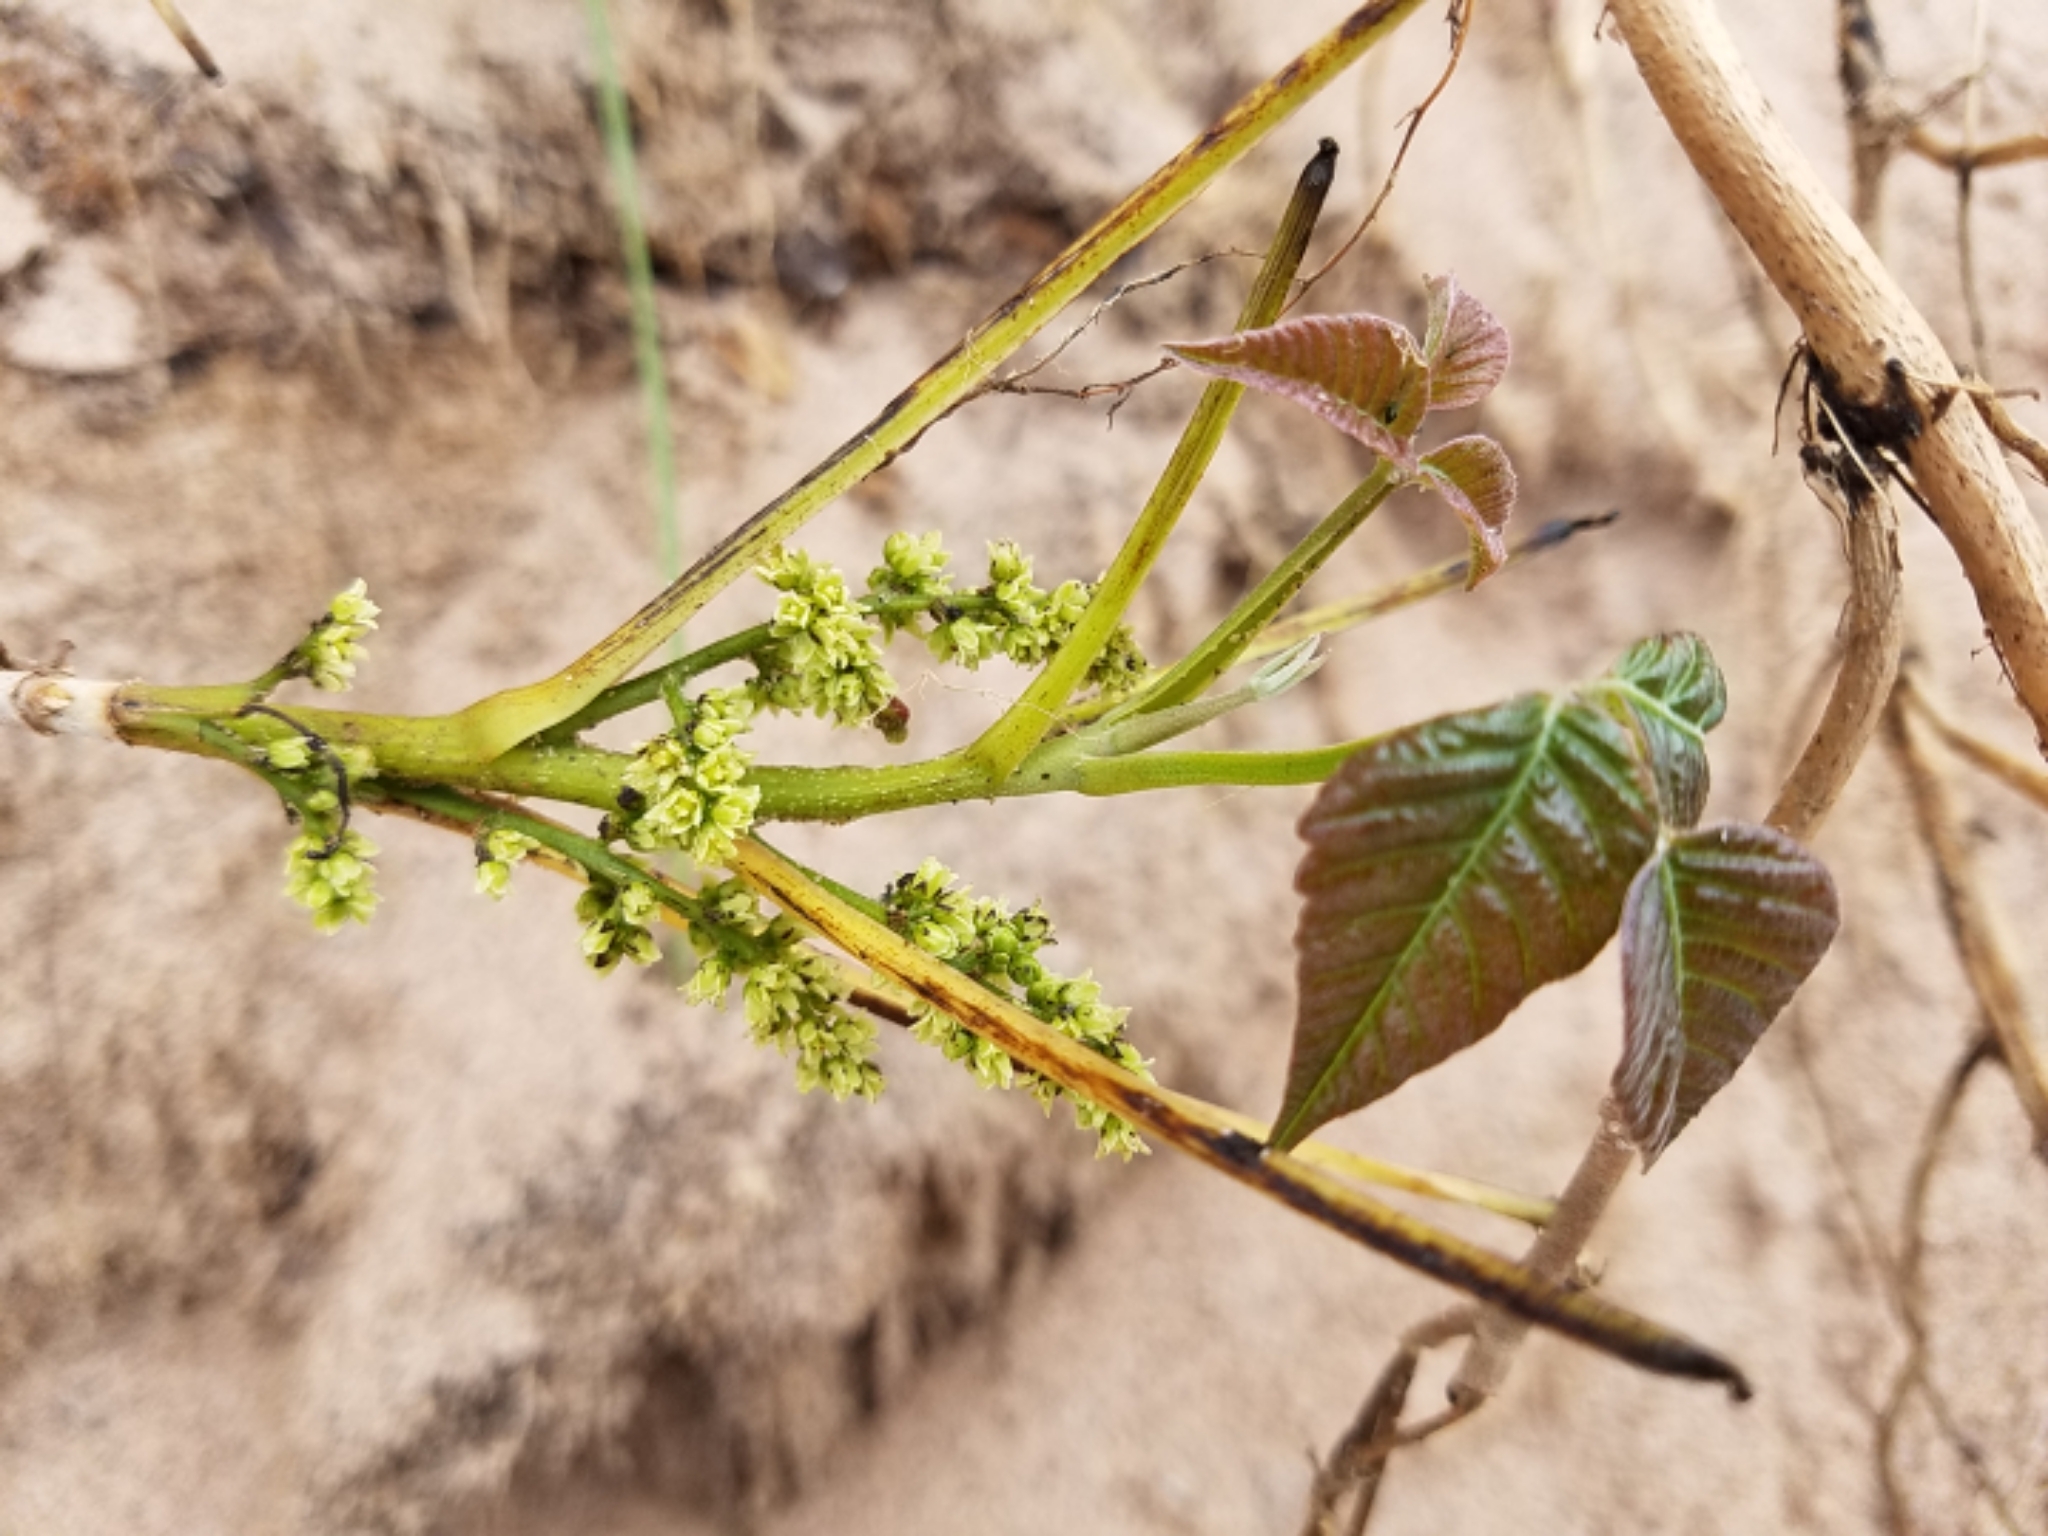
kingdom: Plantae
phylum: Tracheophyta
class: Magnoliopsida
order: Sapindales
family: Anacardiaceae
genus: Toxicodendron
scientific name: Toxicodendron rydbergii
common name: Rydberg's poison-ivy
